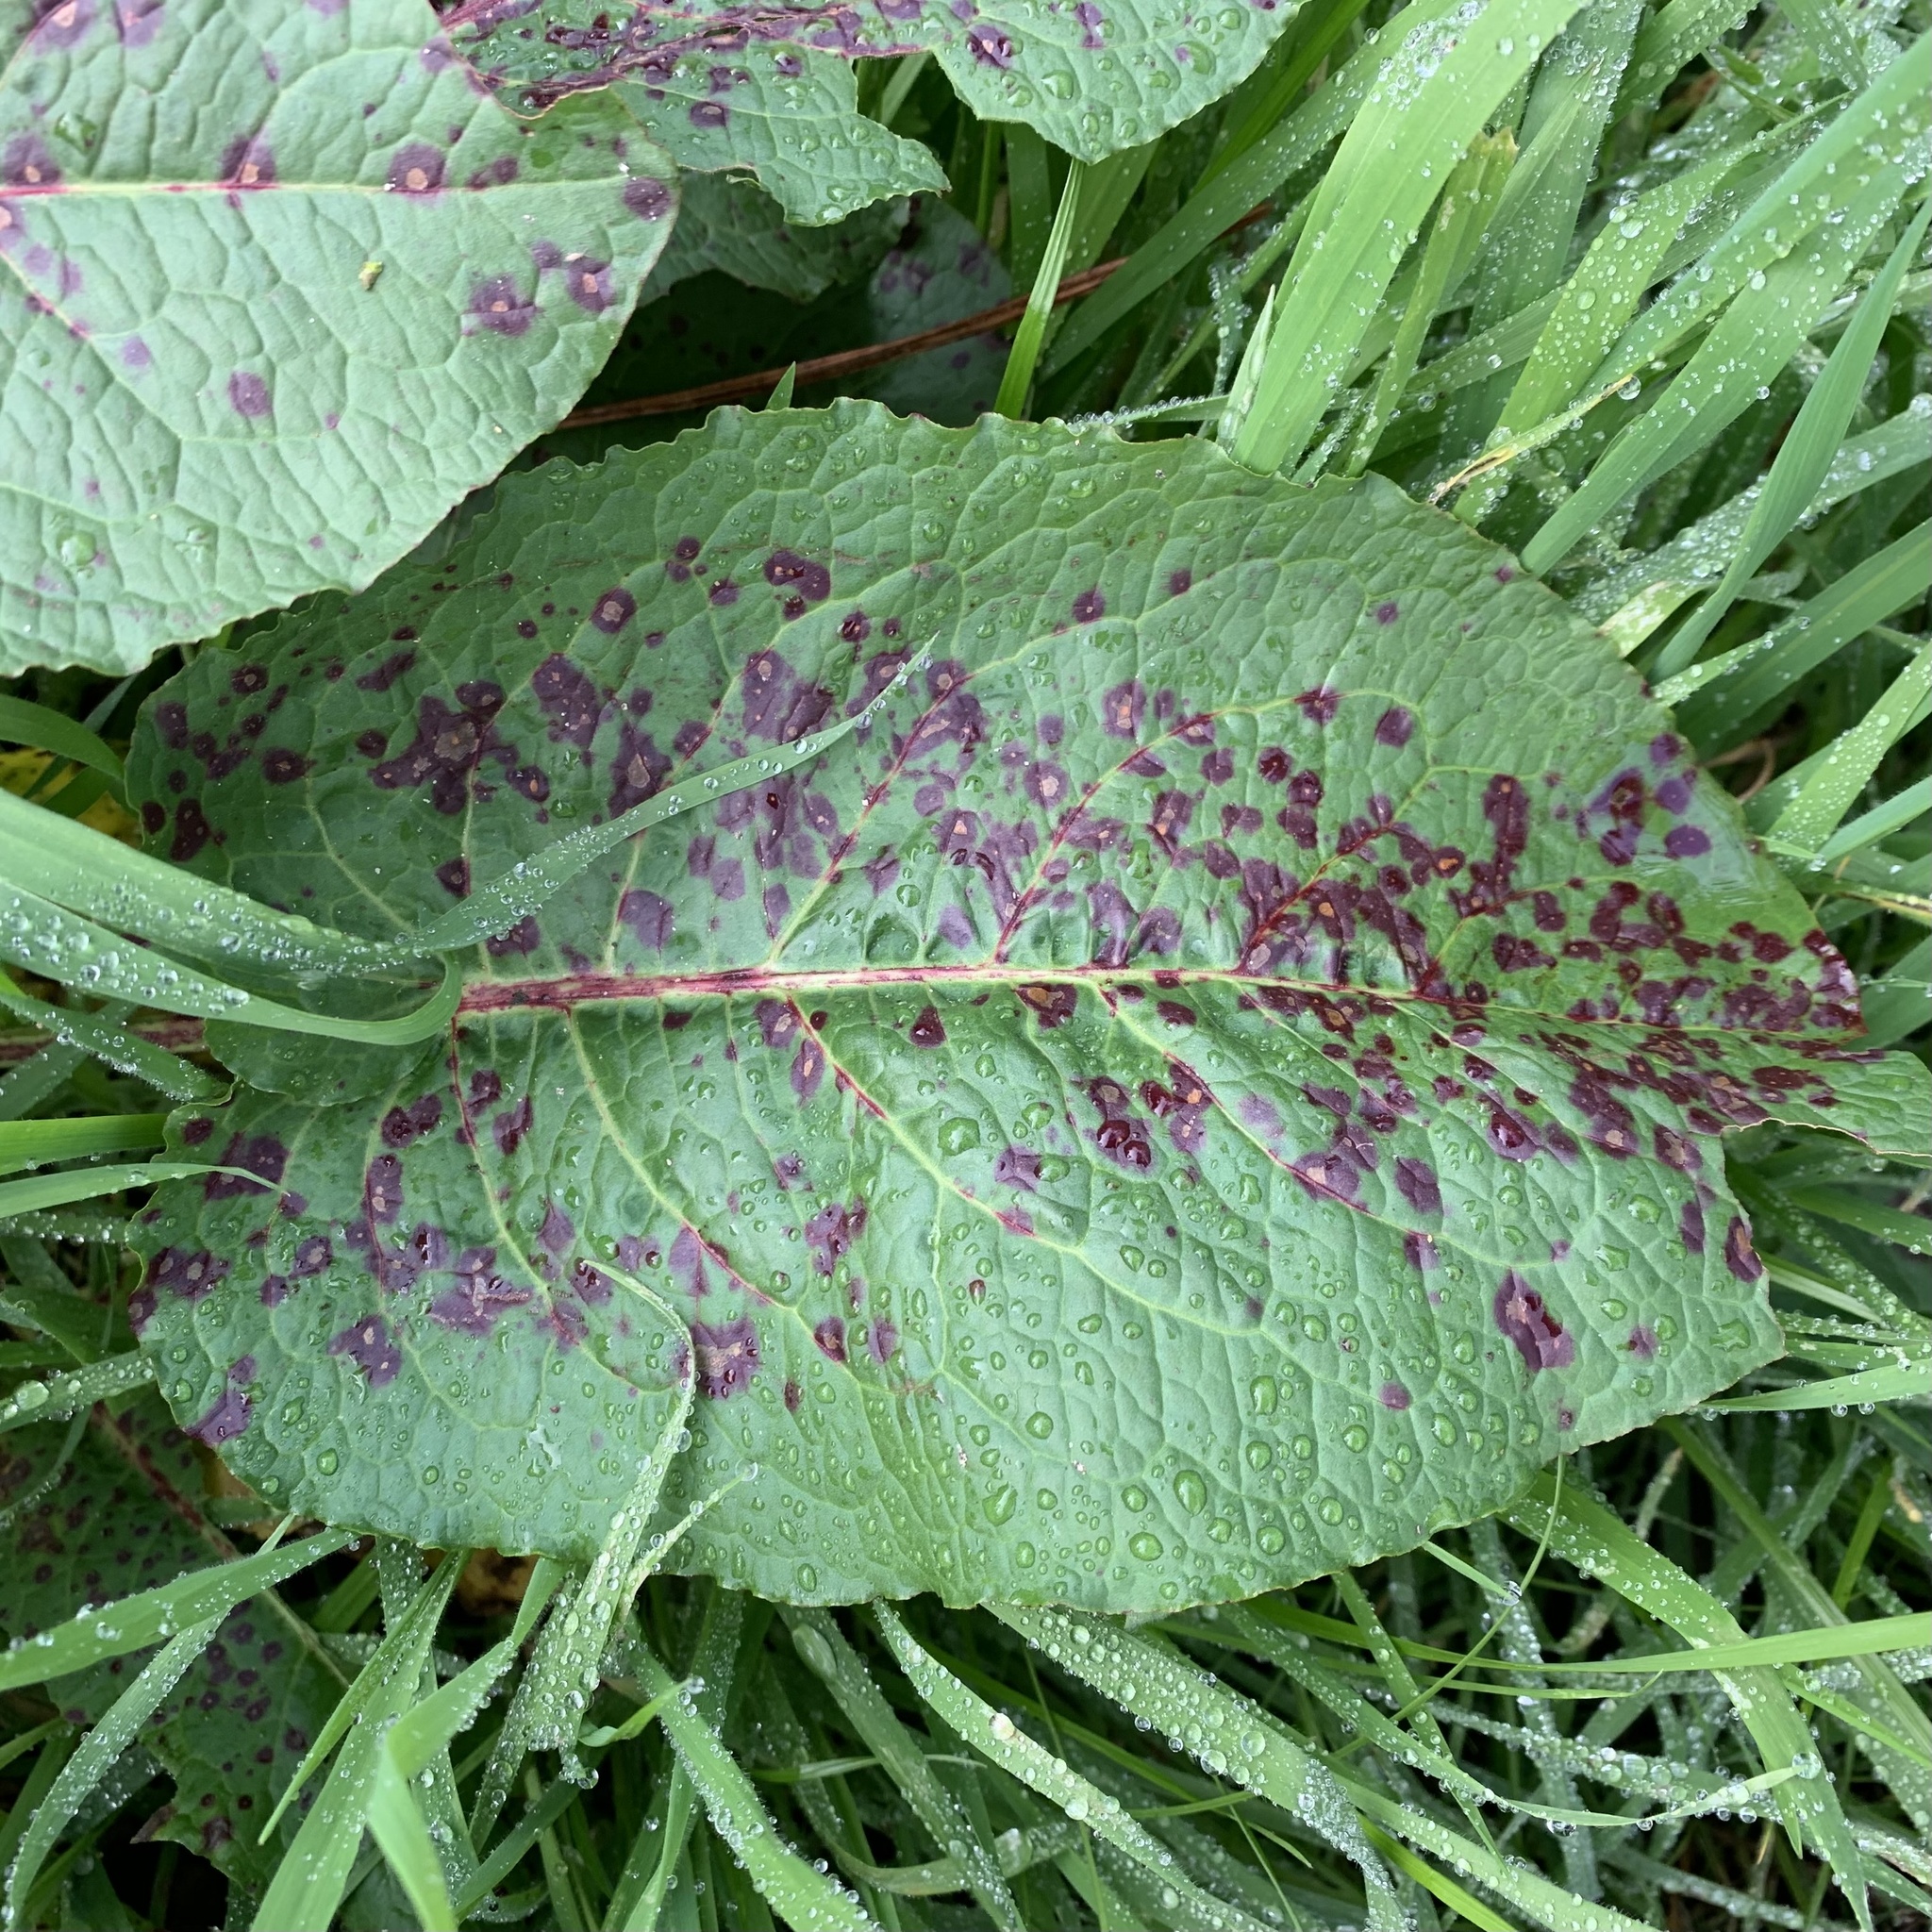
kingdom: Fungi
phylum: Ascomycota
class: Dothideomycetes
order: Mycosphaerellales
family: Mycosphaerellaceae
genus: Ramularia
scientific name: Ramularia rubella
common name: Red dock spot
